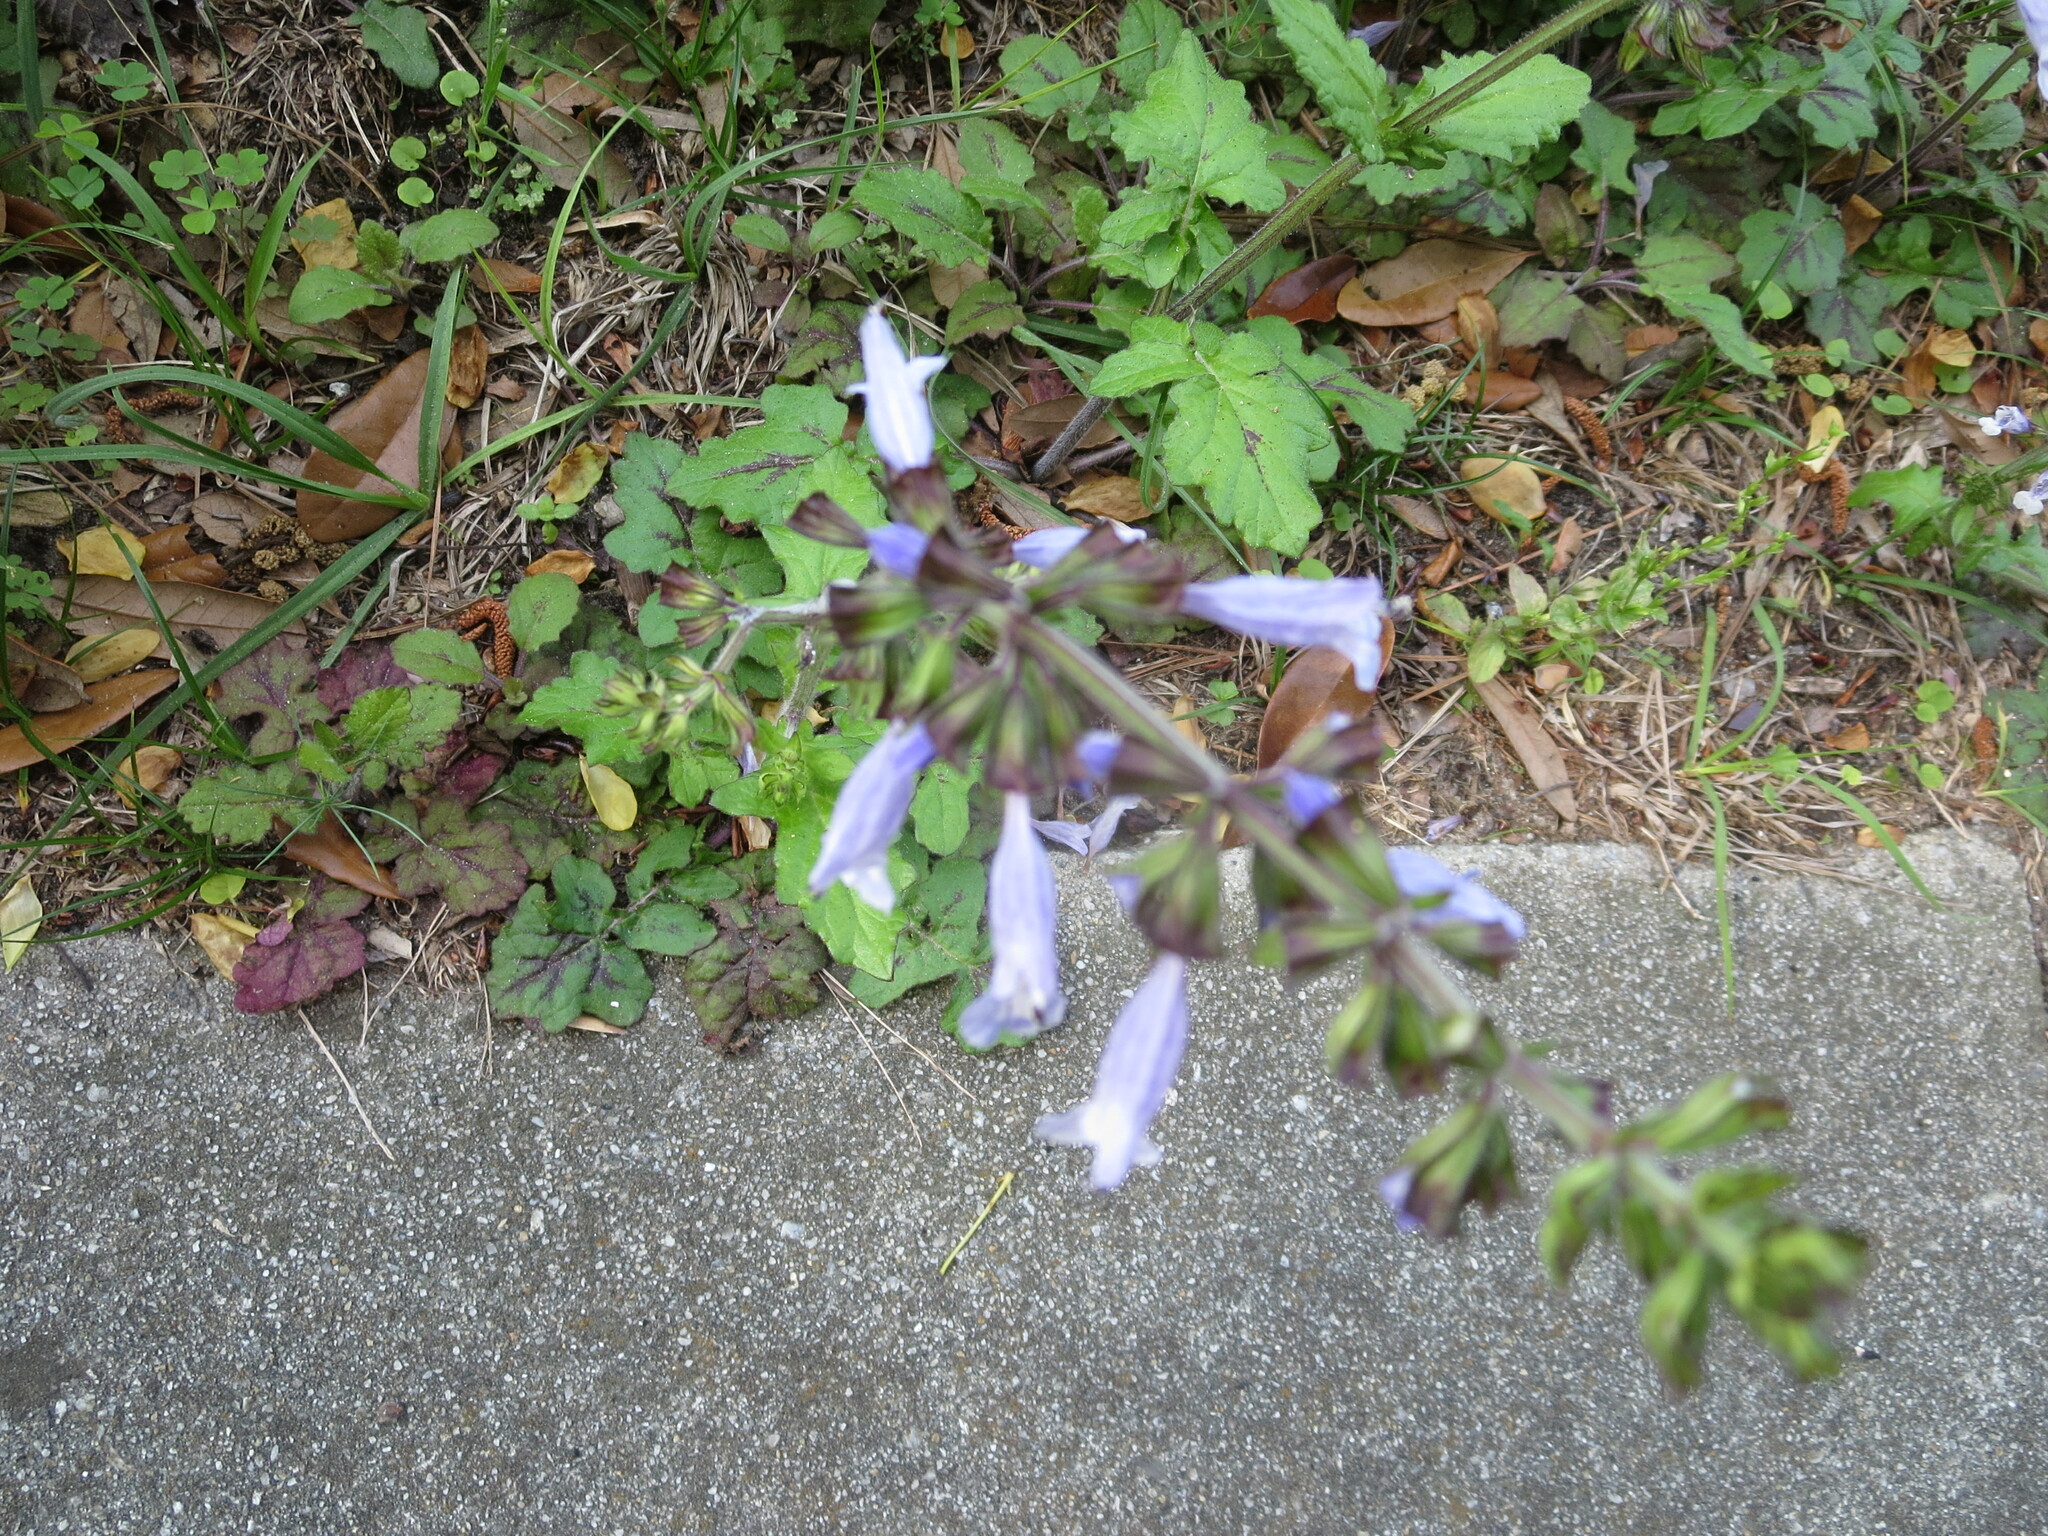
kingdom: Plantae
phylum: Tracheophyta
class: Magnoliopsida
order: Lamiales
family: Lamiaceae
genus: Salvia
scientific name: Salvia lyrata
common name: Cancerweed
